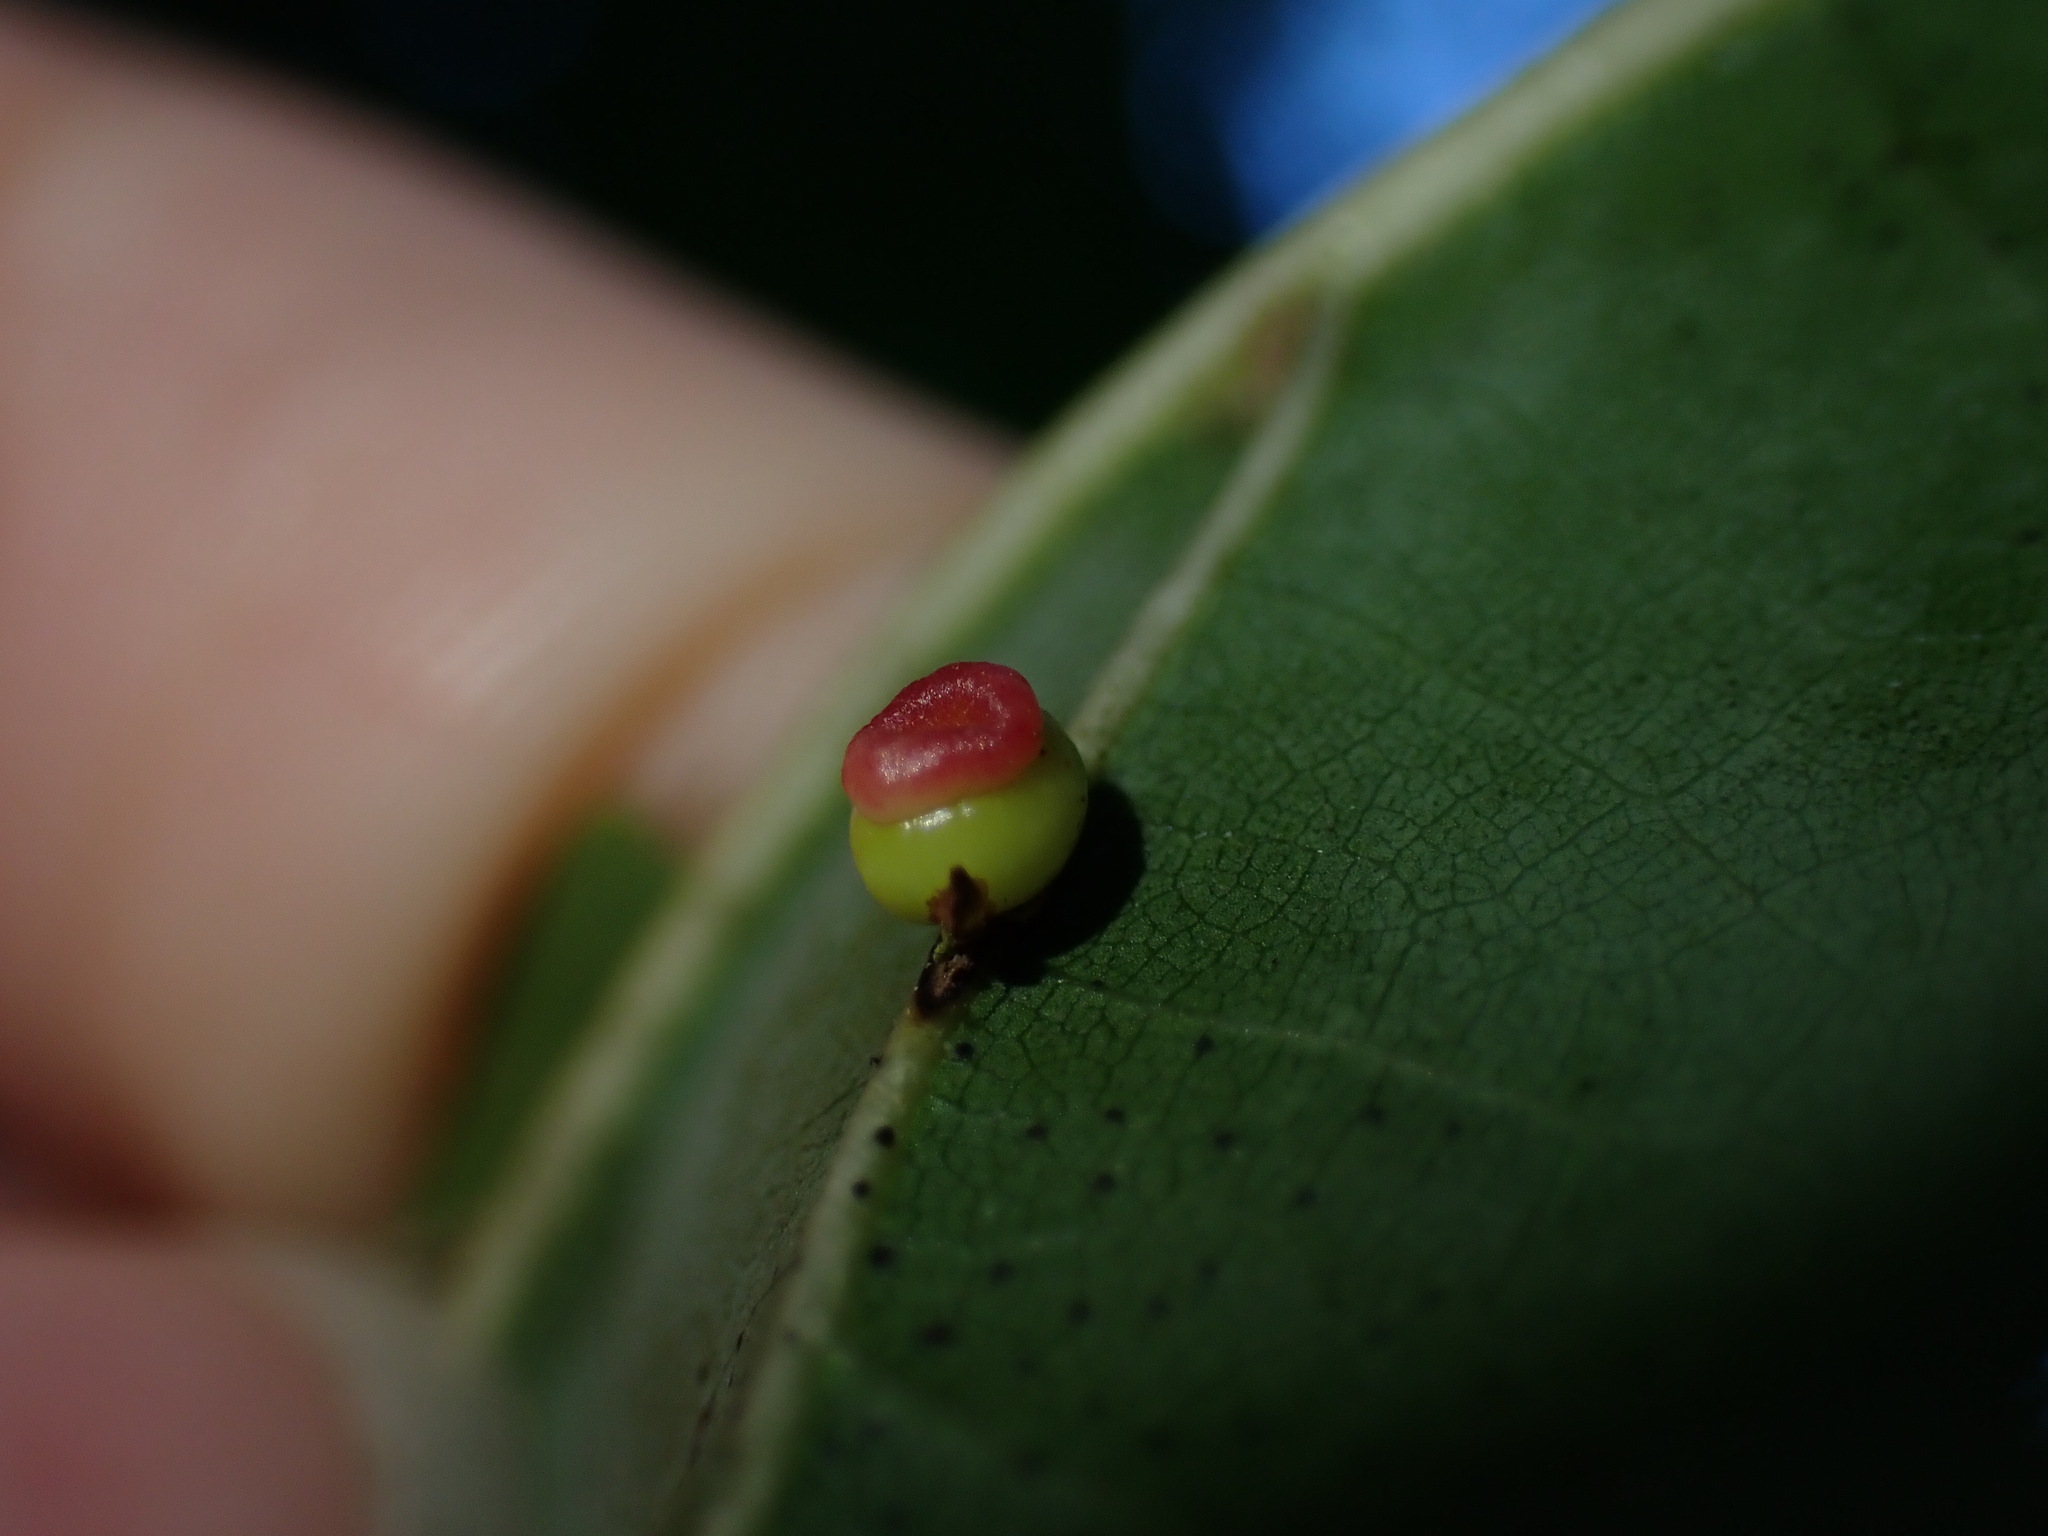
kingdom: Animalia
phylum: Arthropoda
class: Insecta
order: Hymenoptera
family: Cynipidae
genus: Kokkocynips
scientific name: Kokkocynips rileyi
